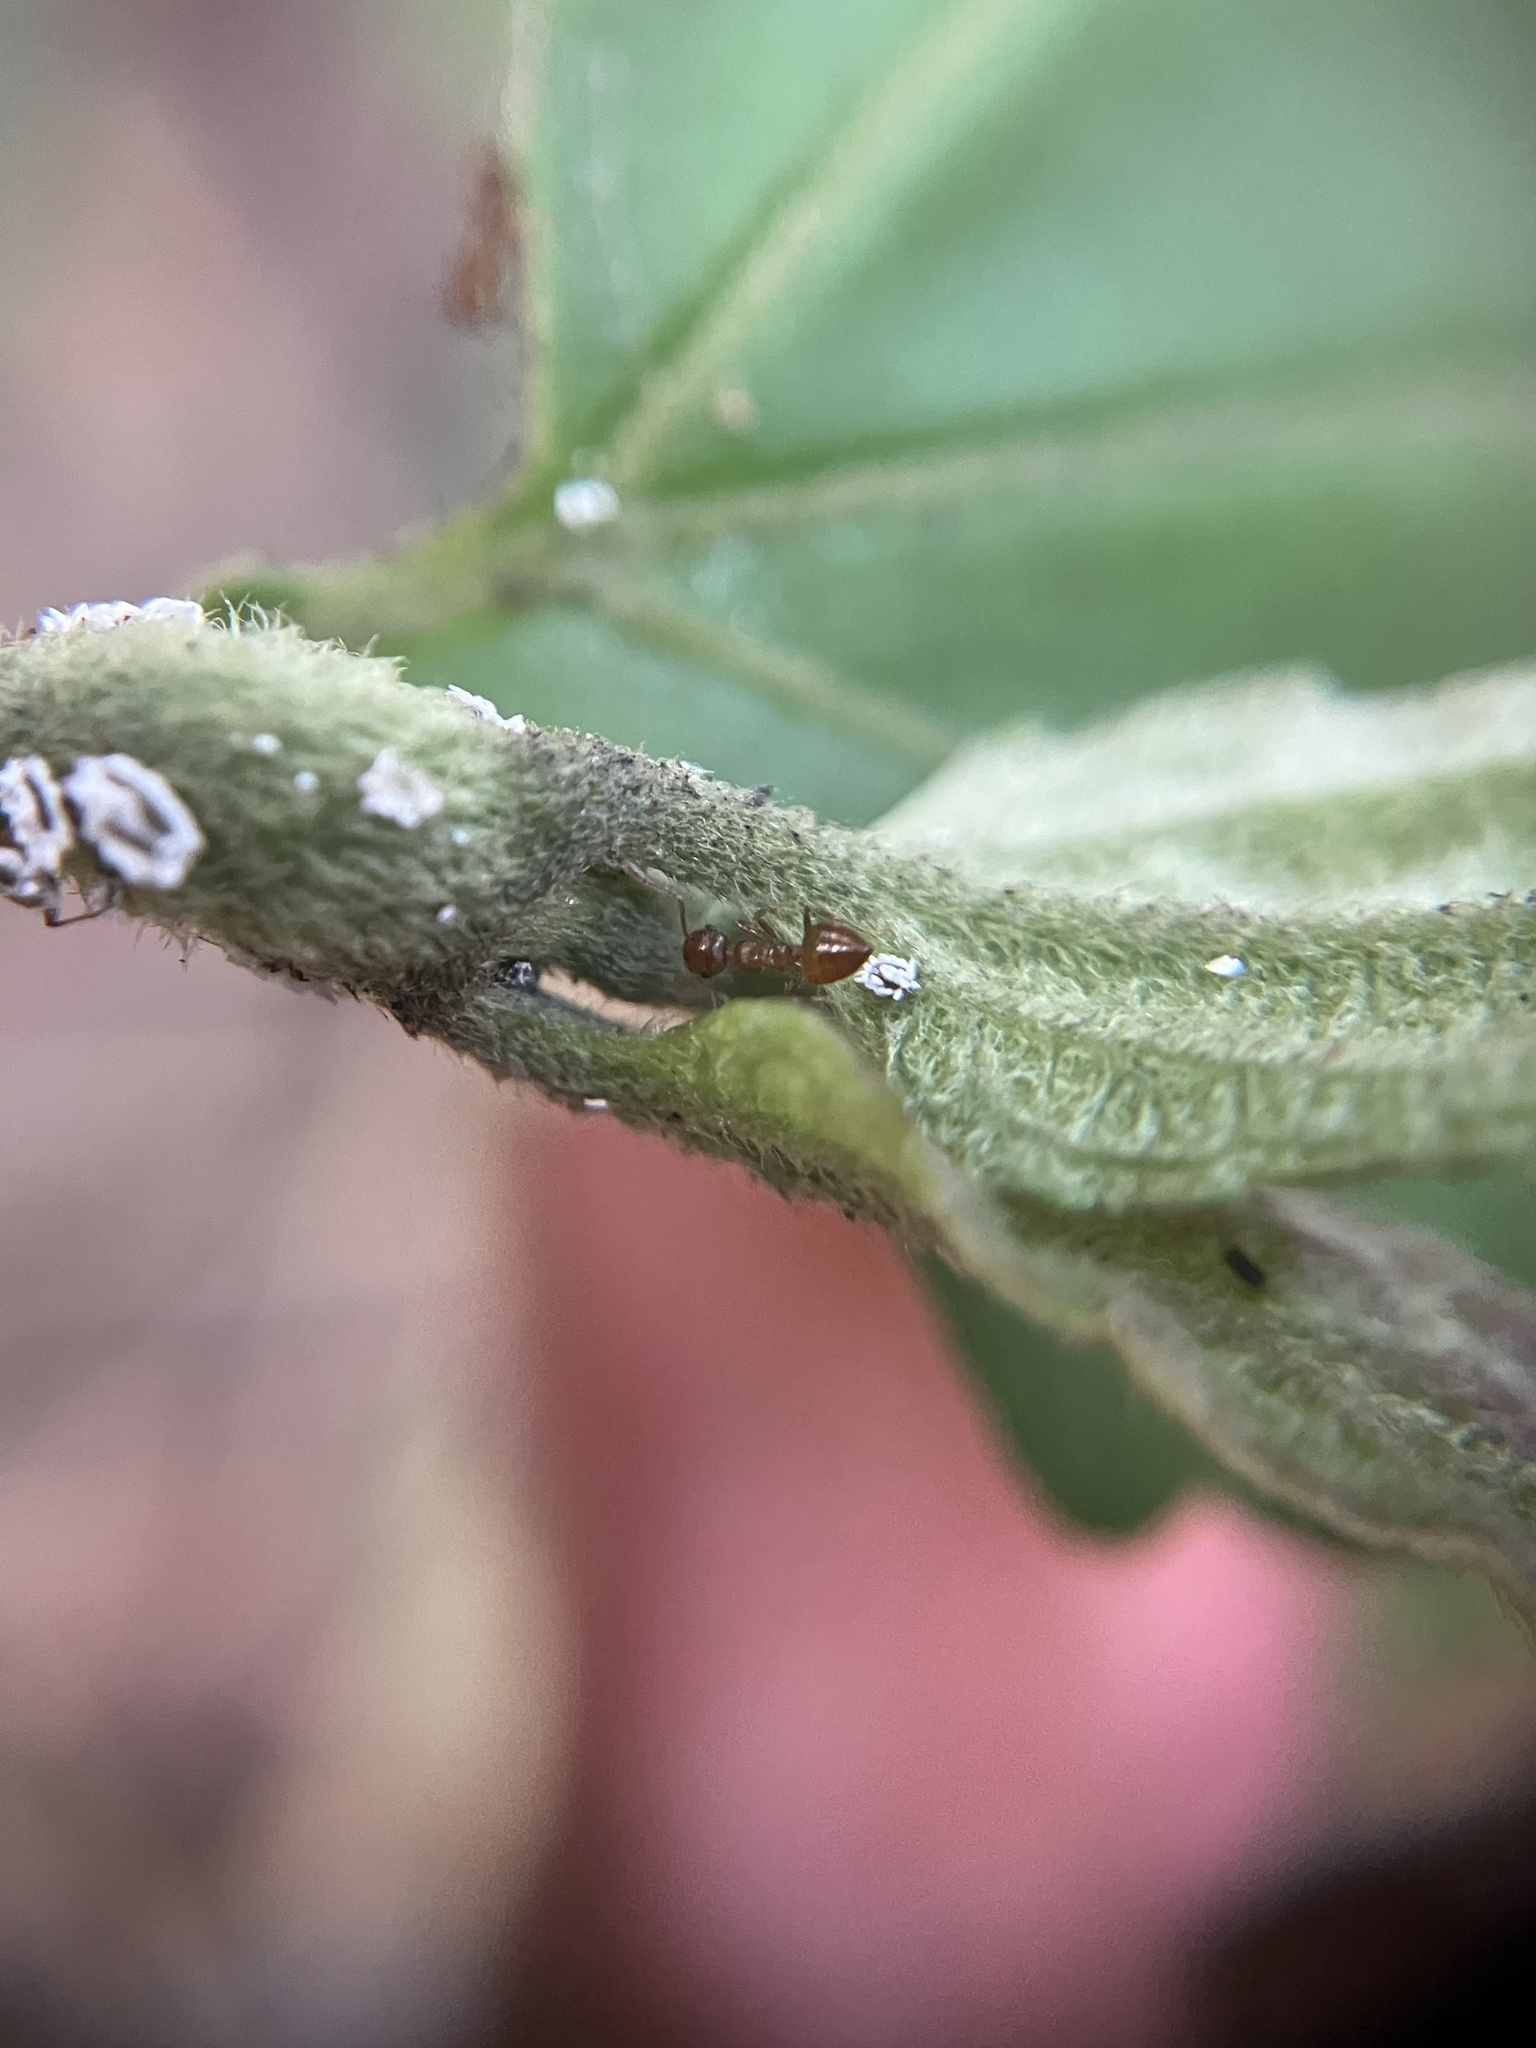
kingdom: Animalia
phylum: Arthropoda
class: Insecta
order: Hymenoptera
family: Formicidae
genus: Crematogaster
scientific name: Crematogaster politula
